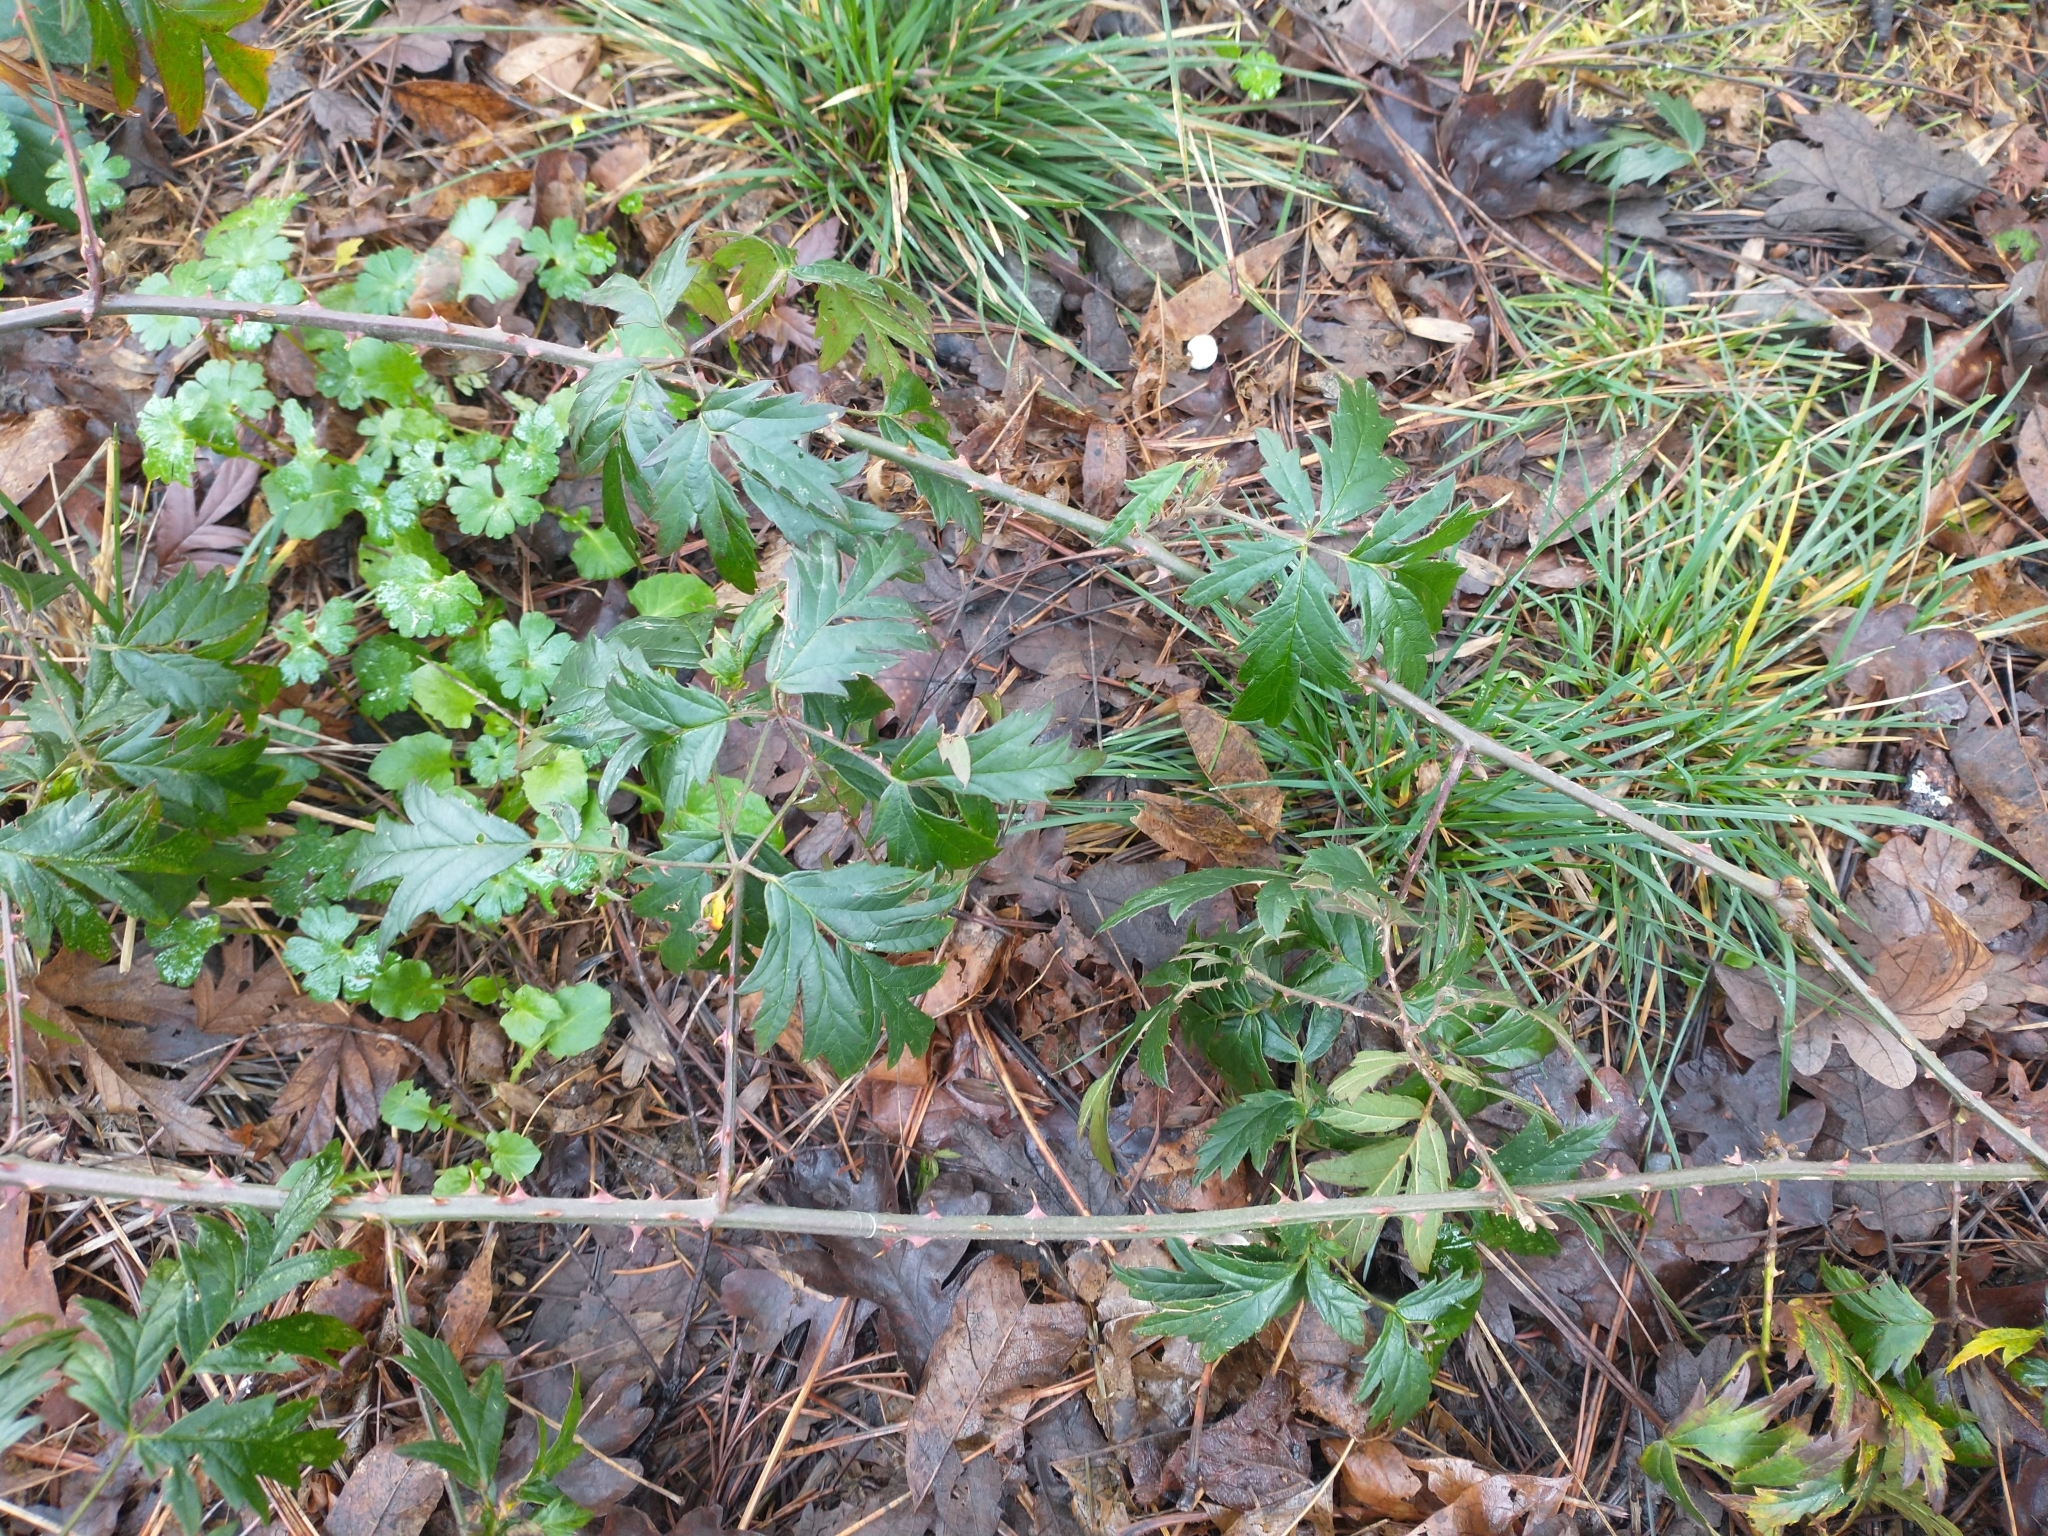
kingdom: Plantae
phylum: Tracheophyta
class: Magnoliopsida
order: Rosales
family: Rosaceae
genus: Rubus
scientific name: Rubus laciniatus
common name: Evergreen blackberry
